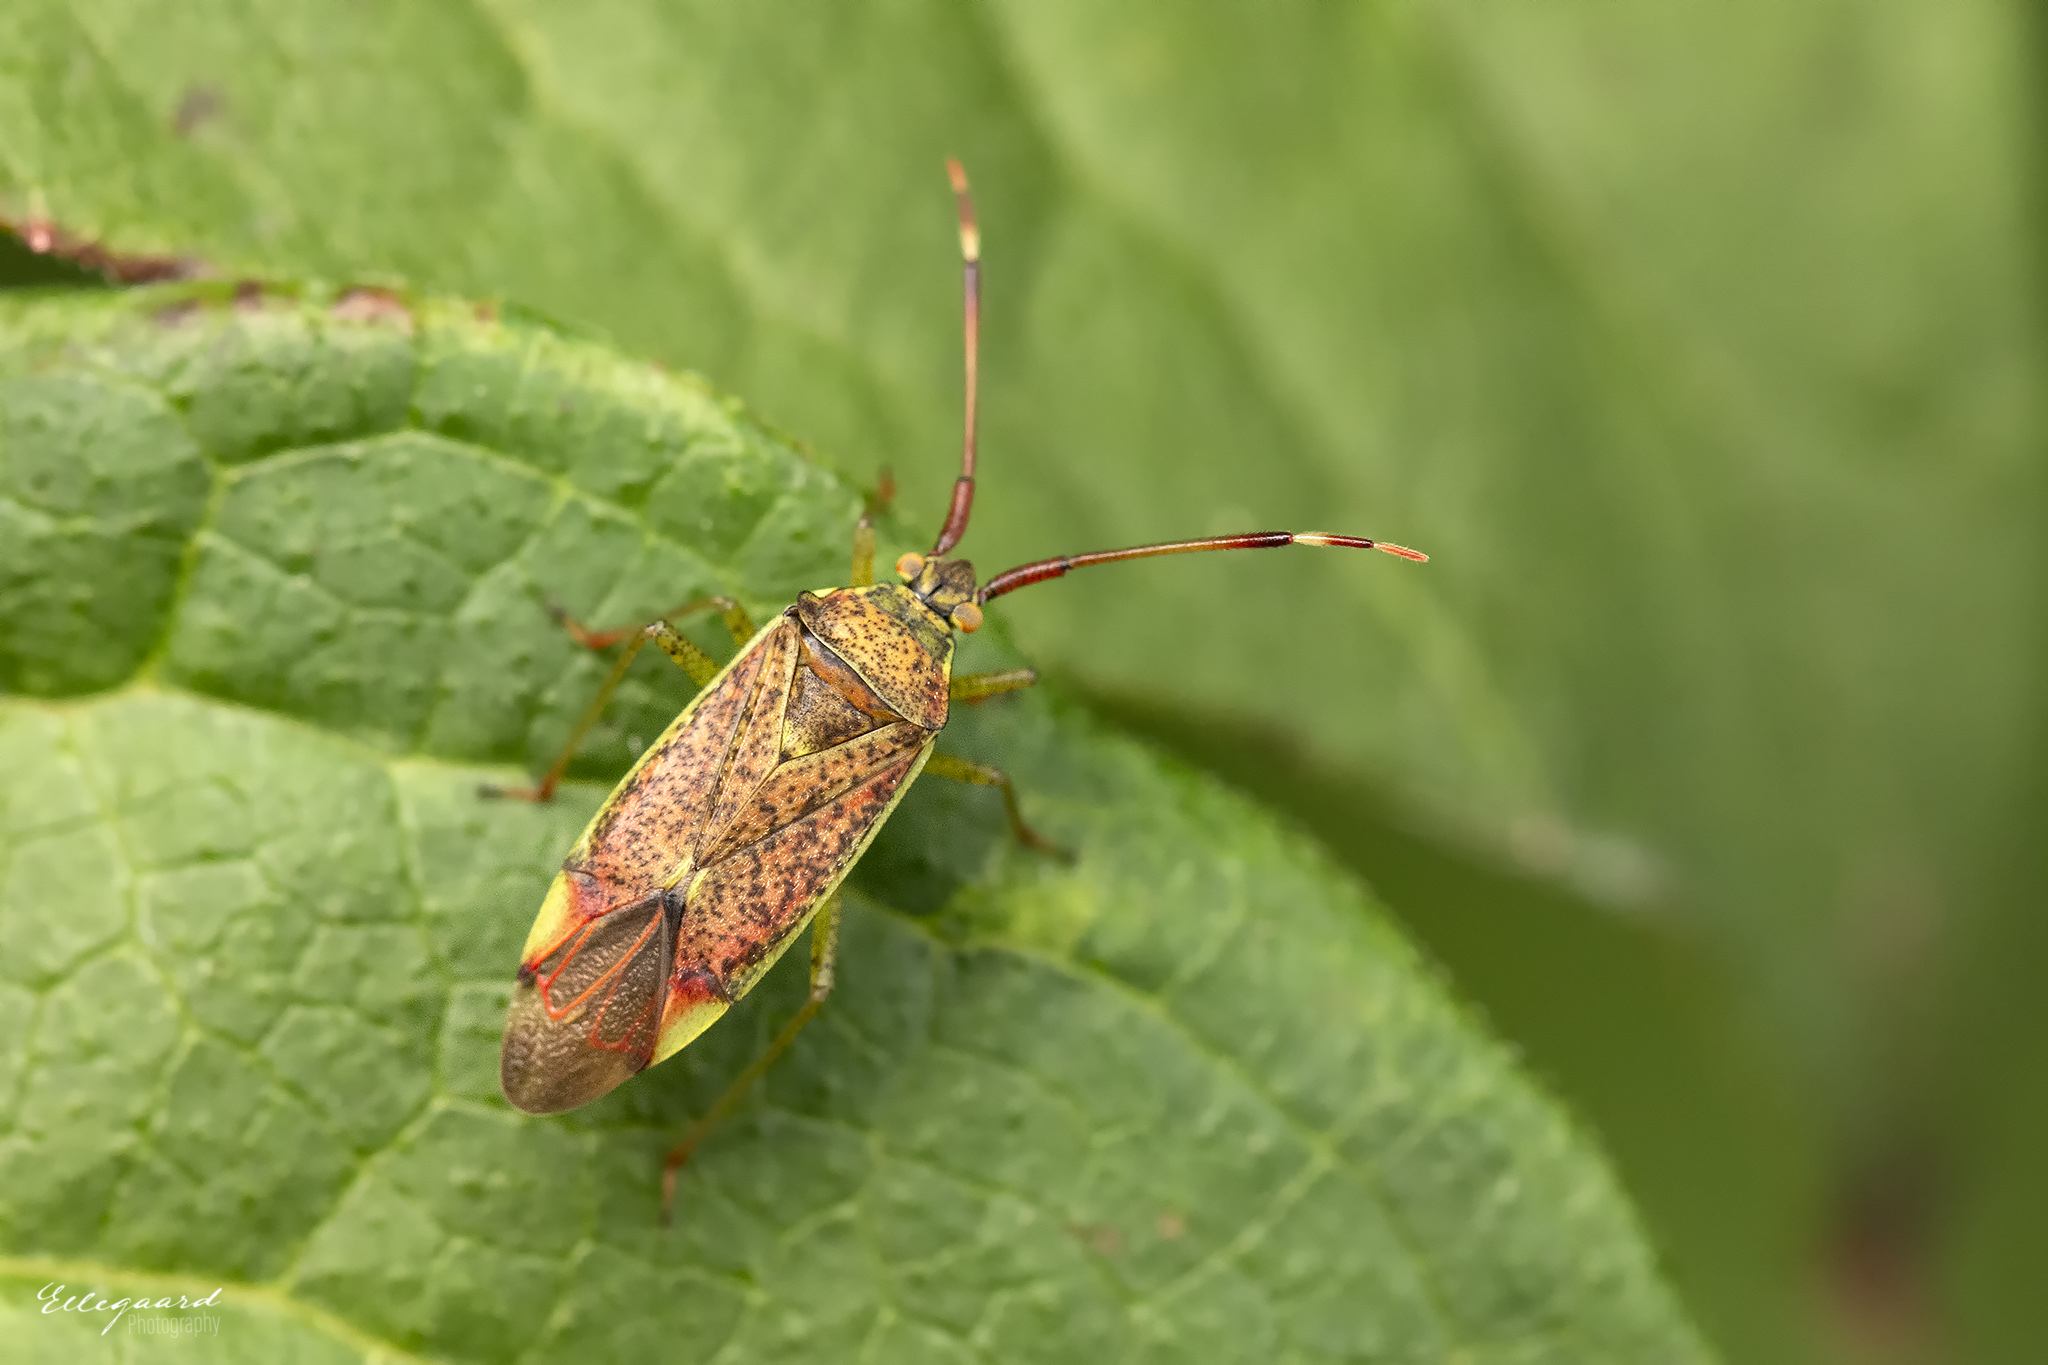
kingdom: Animalia
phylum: Arthropoda
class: Insecta
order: Hemiptera
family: Miridae
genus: Pantilius
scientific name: Pantilius tunicatus
